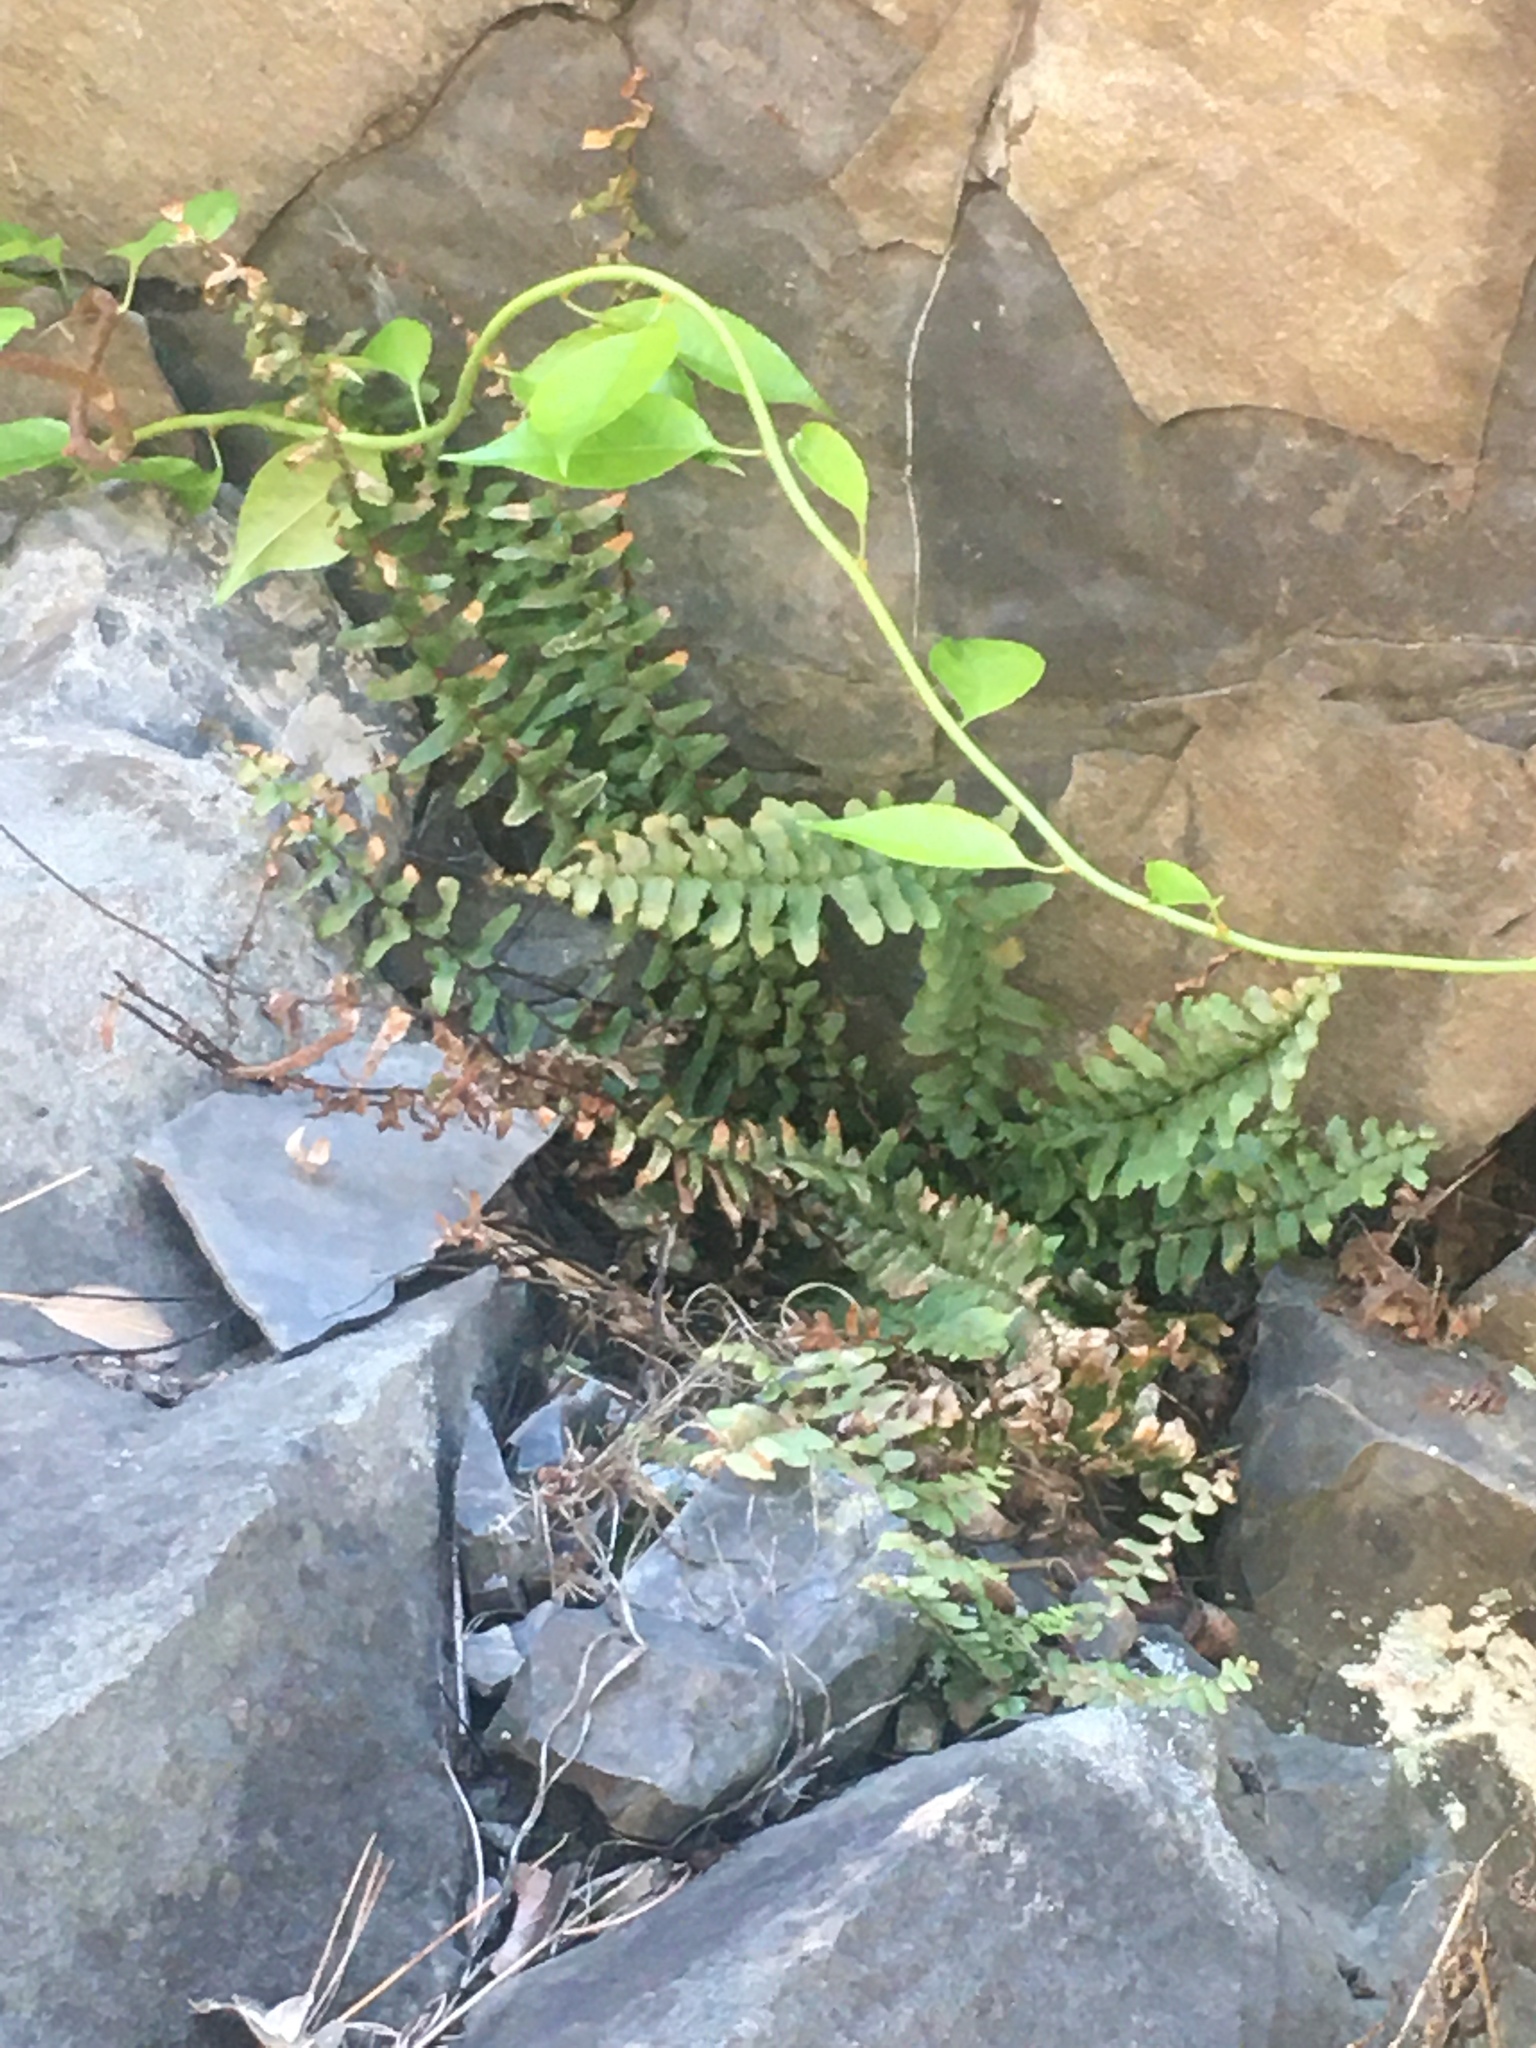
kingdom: Plantae
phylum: Tracheophyta
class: Polypodiopsida
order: Polypodiales
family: Aspleniaceae
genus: Asplenium
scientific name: Asplenium platyneuron
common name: Ebony spleenwort
